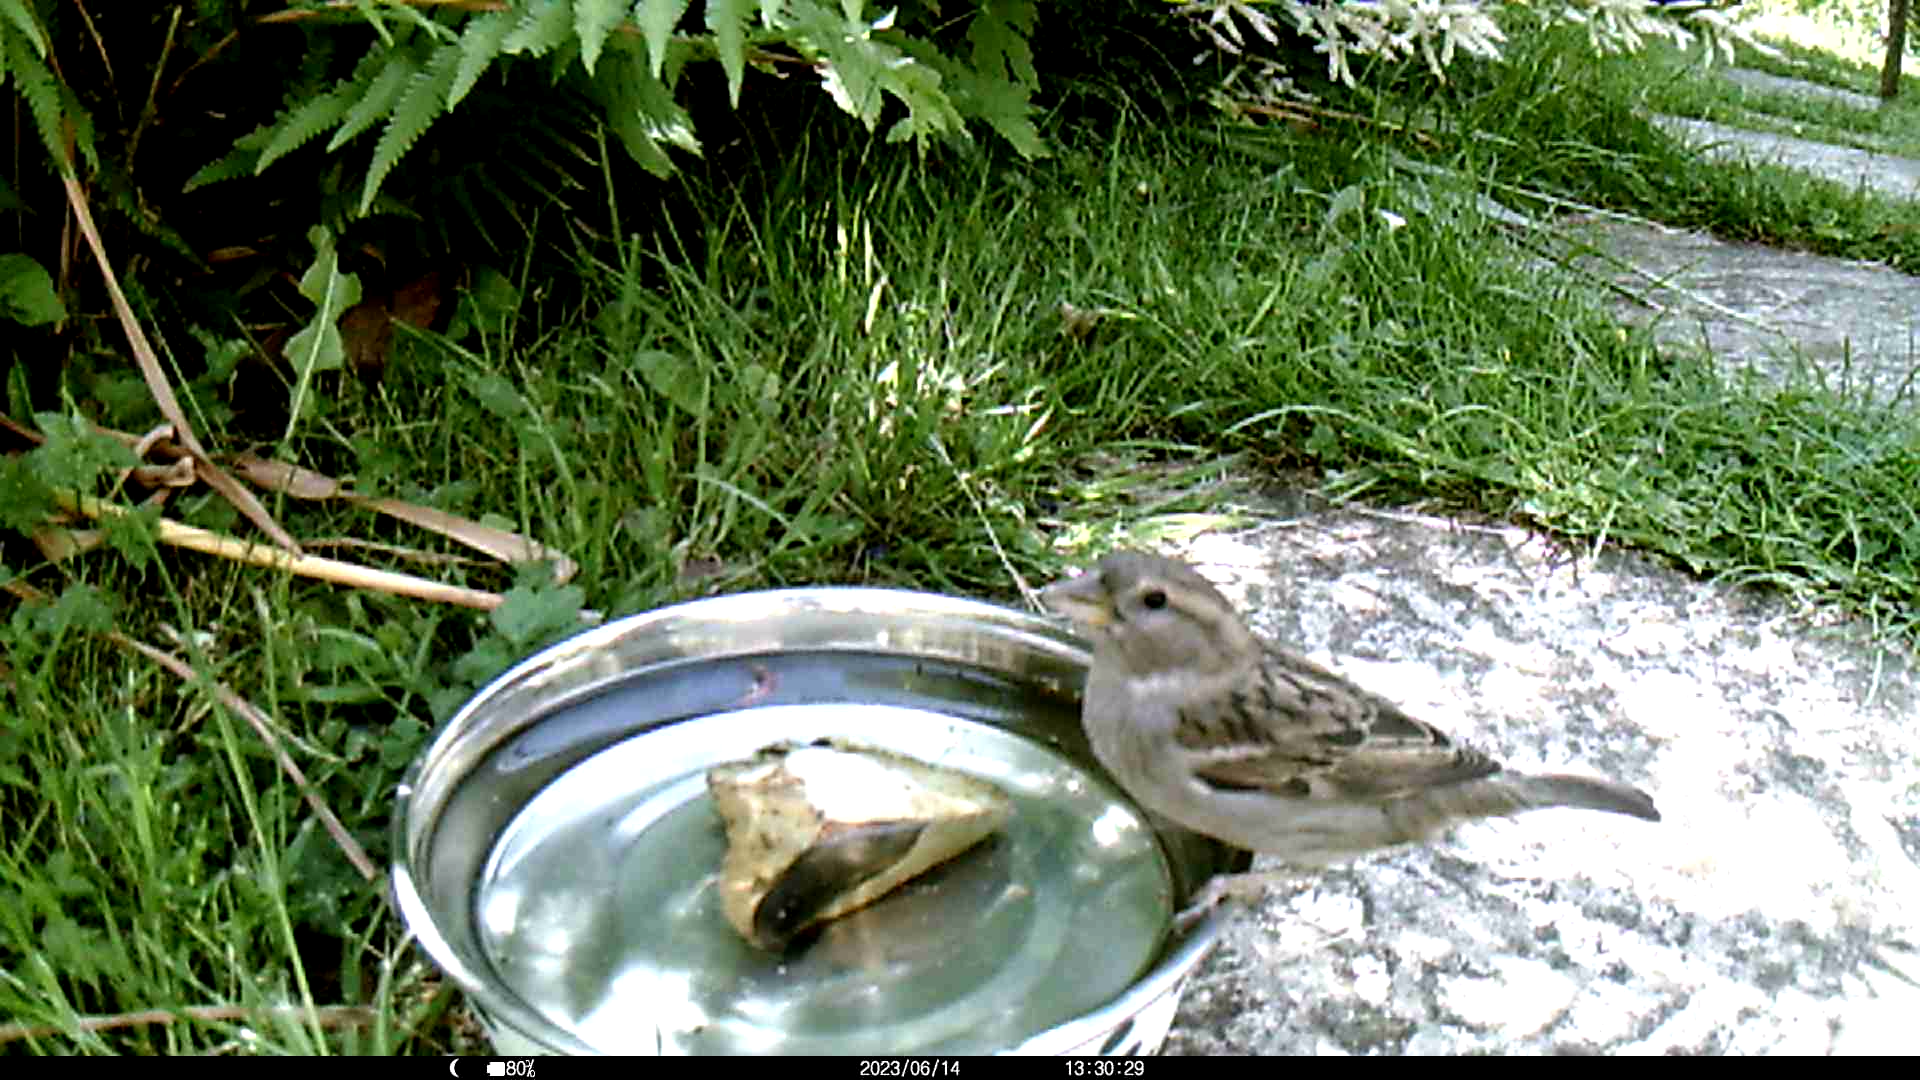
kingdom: Animalia
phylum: Chordata
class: Aves
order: Passeriformes
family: Passeridae
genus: Passer
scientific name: Passer domesticus
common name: House sparrow
